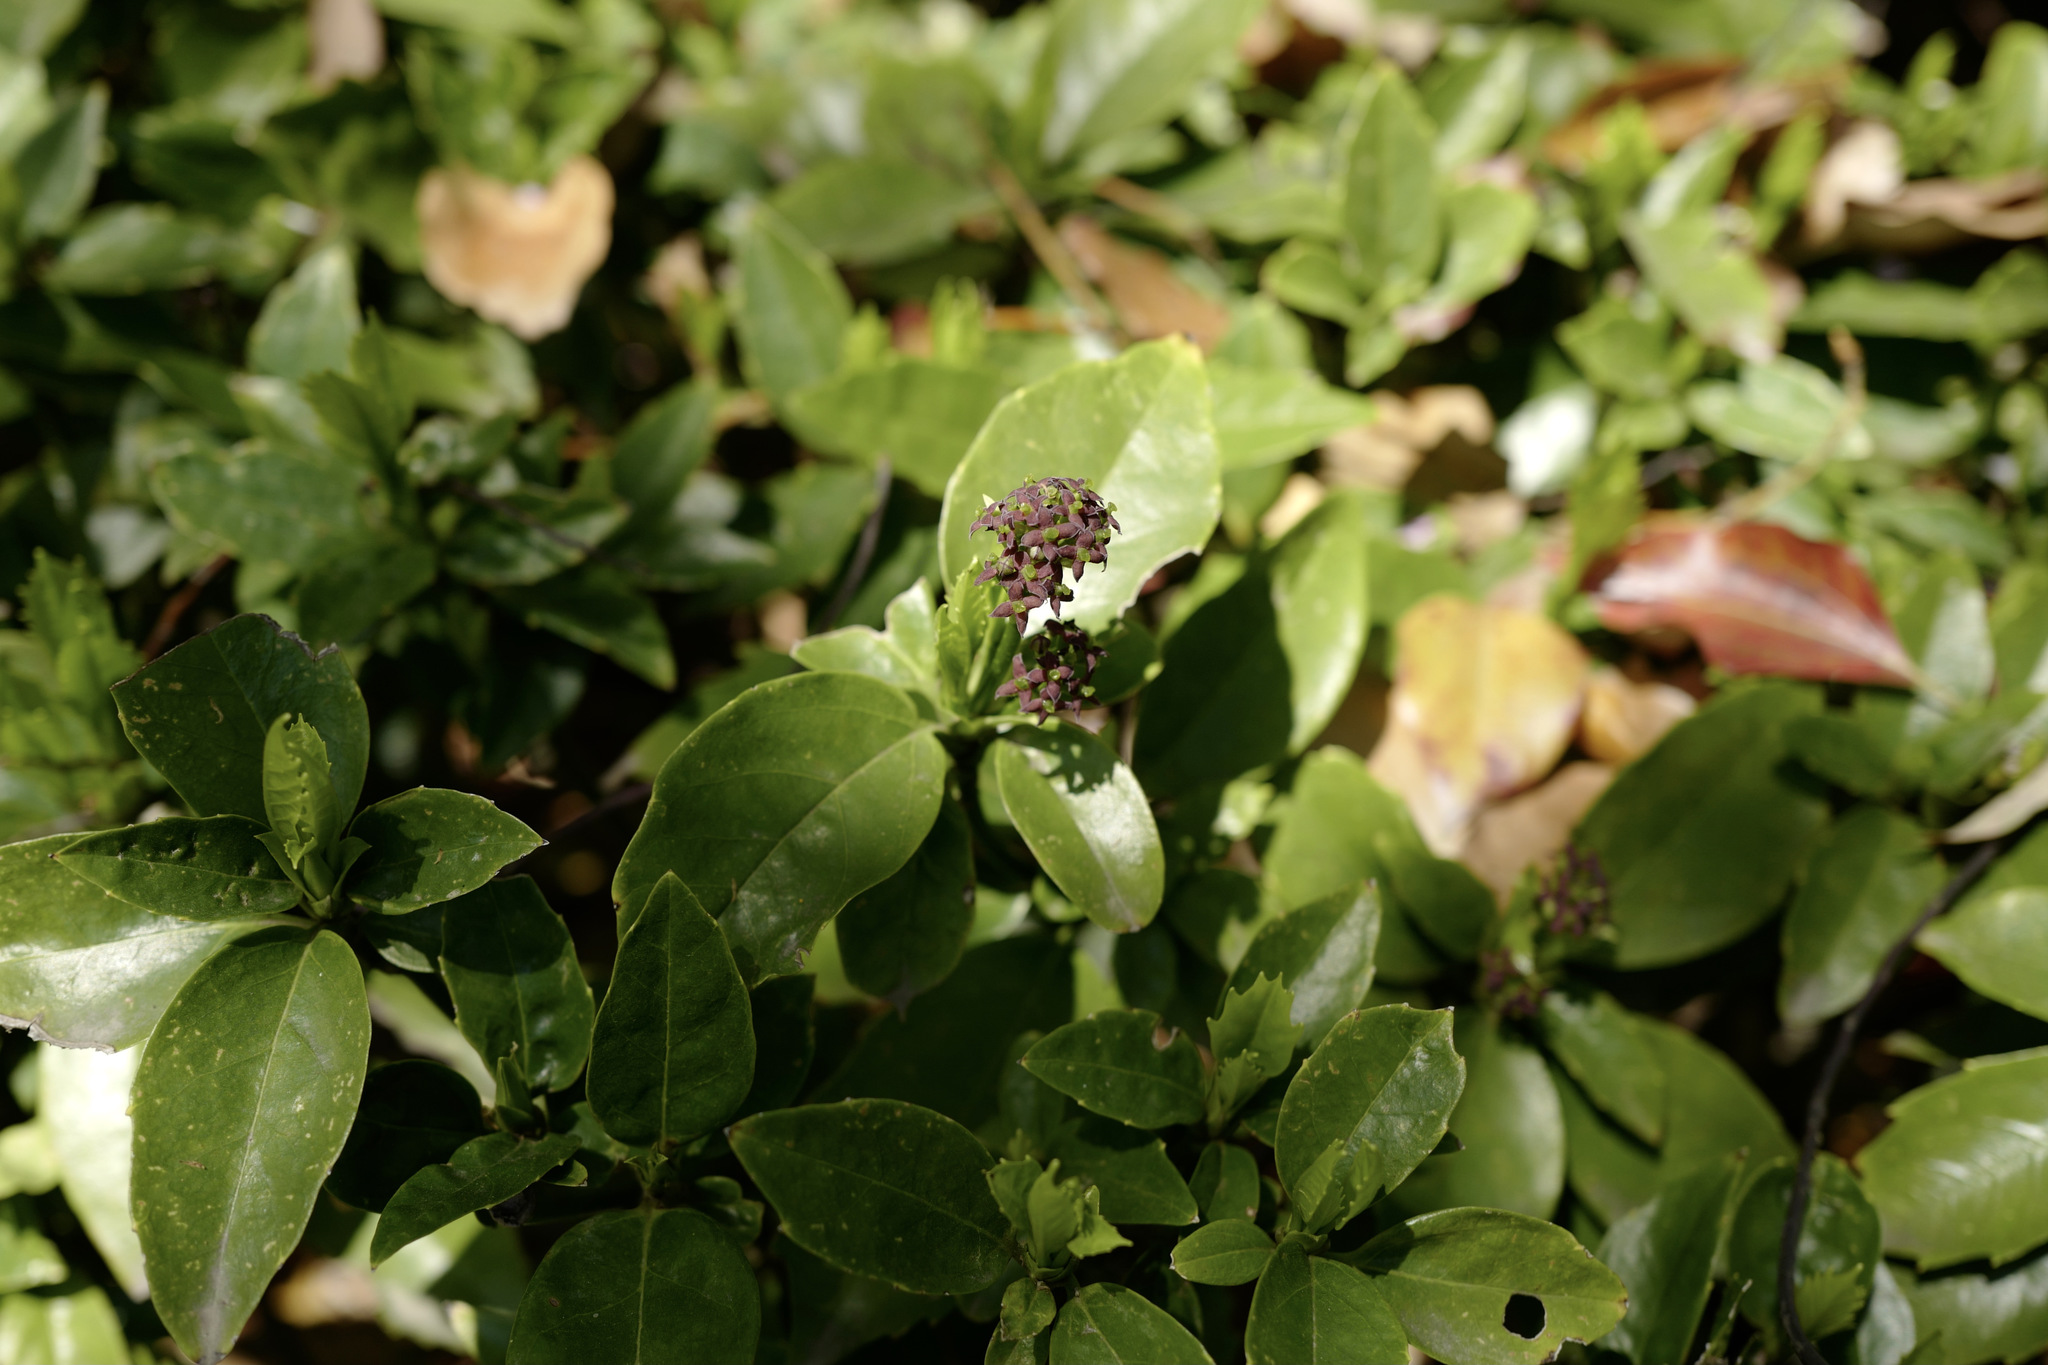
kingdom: Plantae
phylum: Tracheophyta
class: Magnoliopsida
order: Garryales
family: Garryaceae
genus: Aucuba
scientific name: Aucuba japonica
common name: Spotted-laurel
